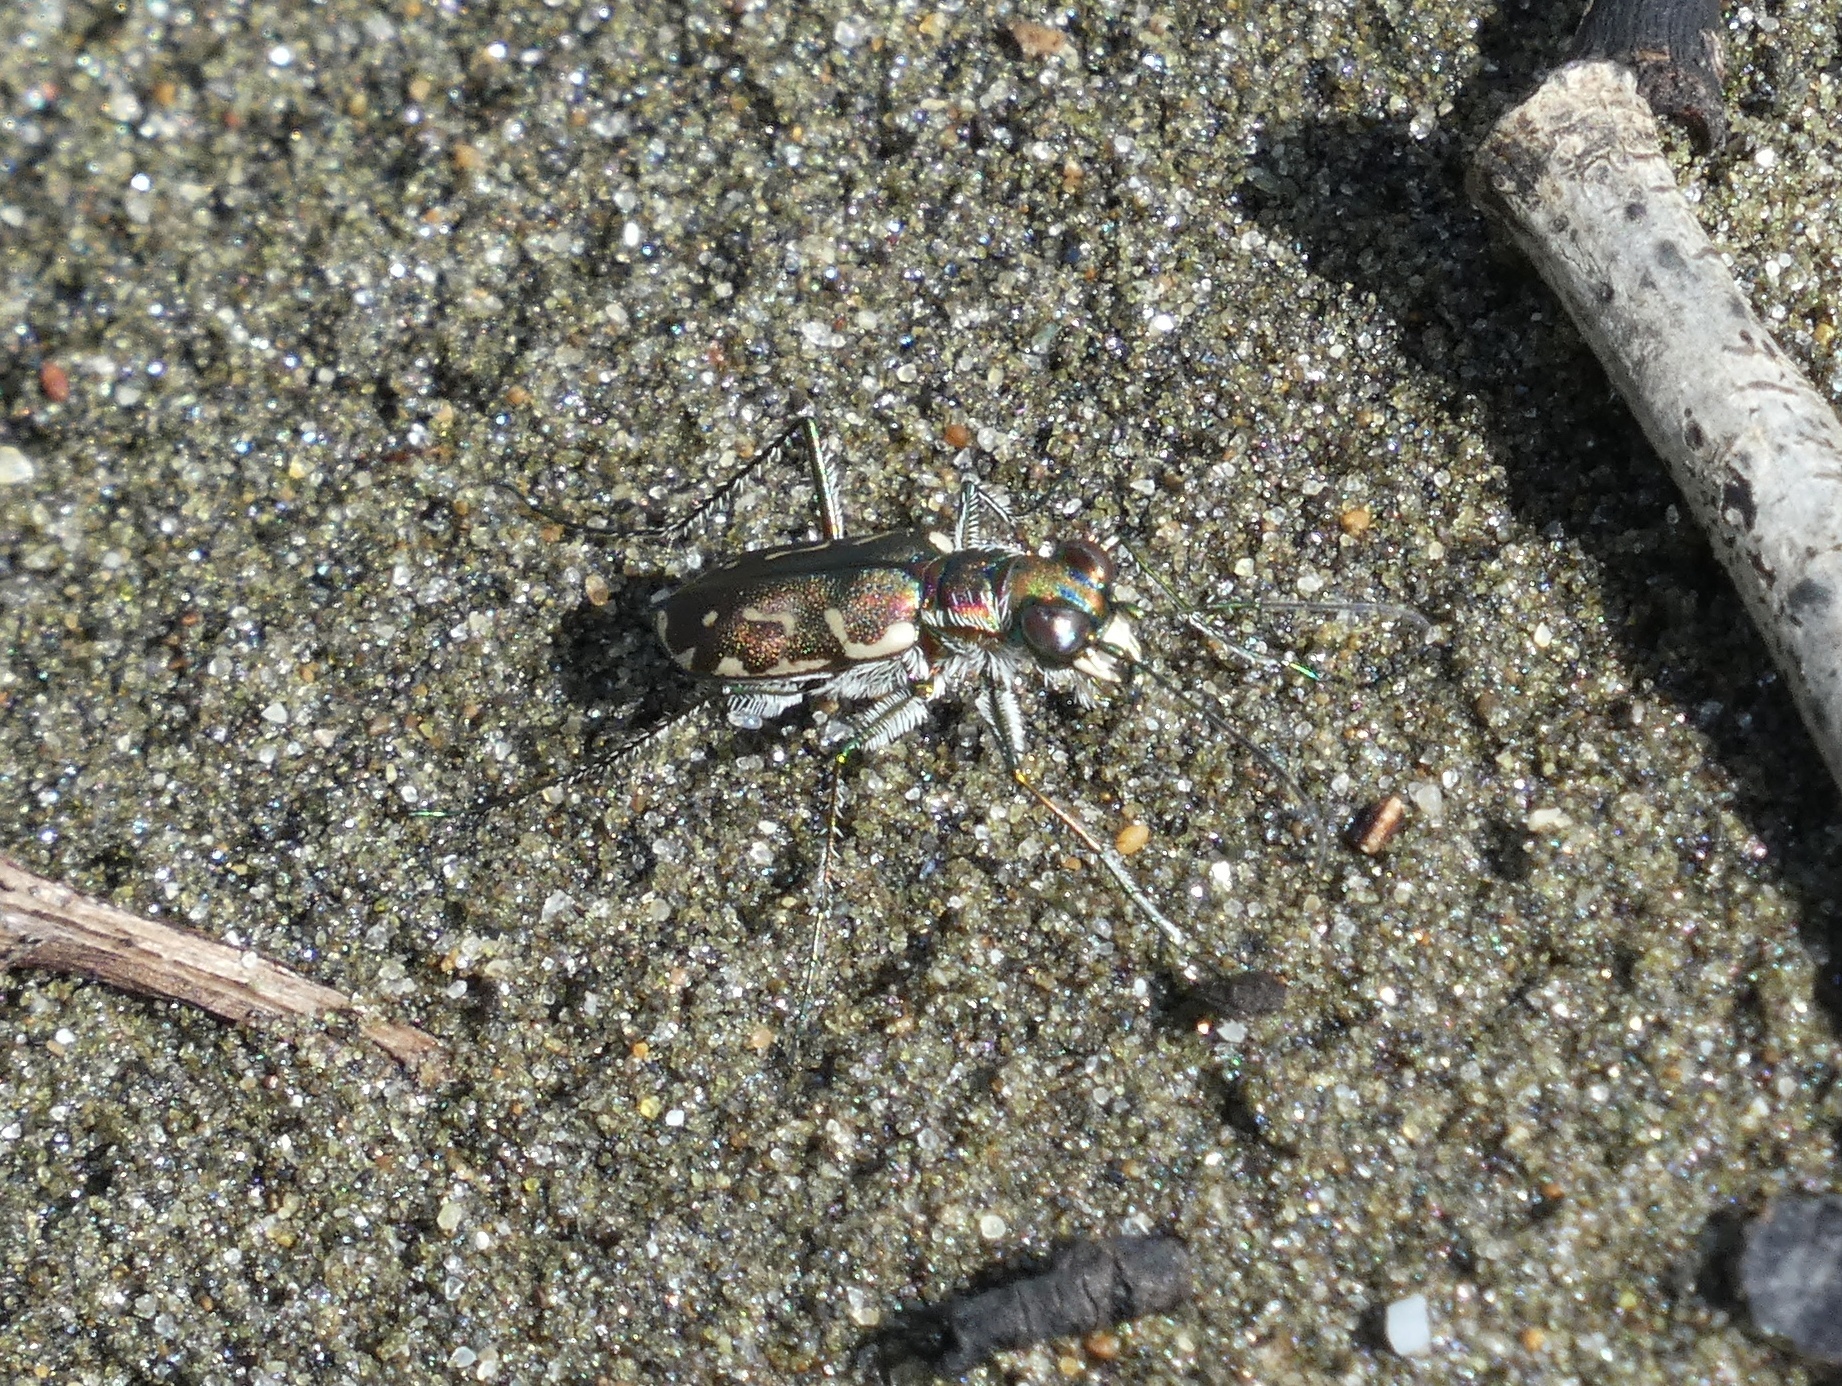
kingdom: Animalia
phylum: Arthropoda
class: Insecta
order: Coleoptera
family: Carabidae
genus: Cicindela
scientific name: Cicindela carthagena
